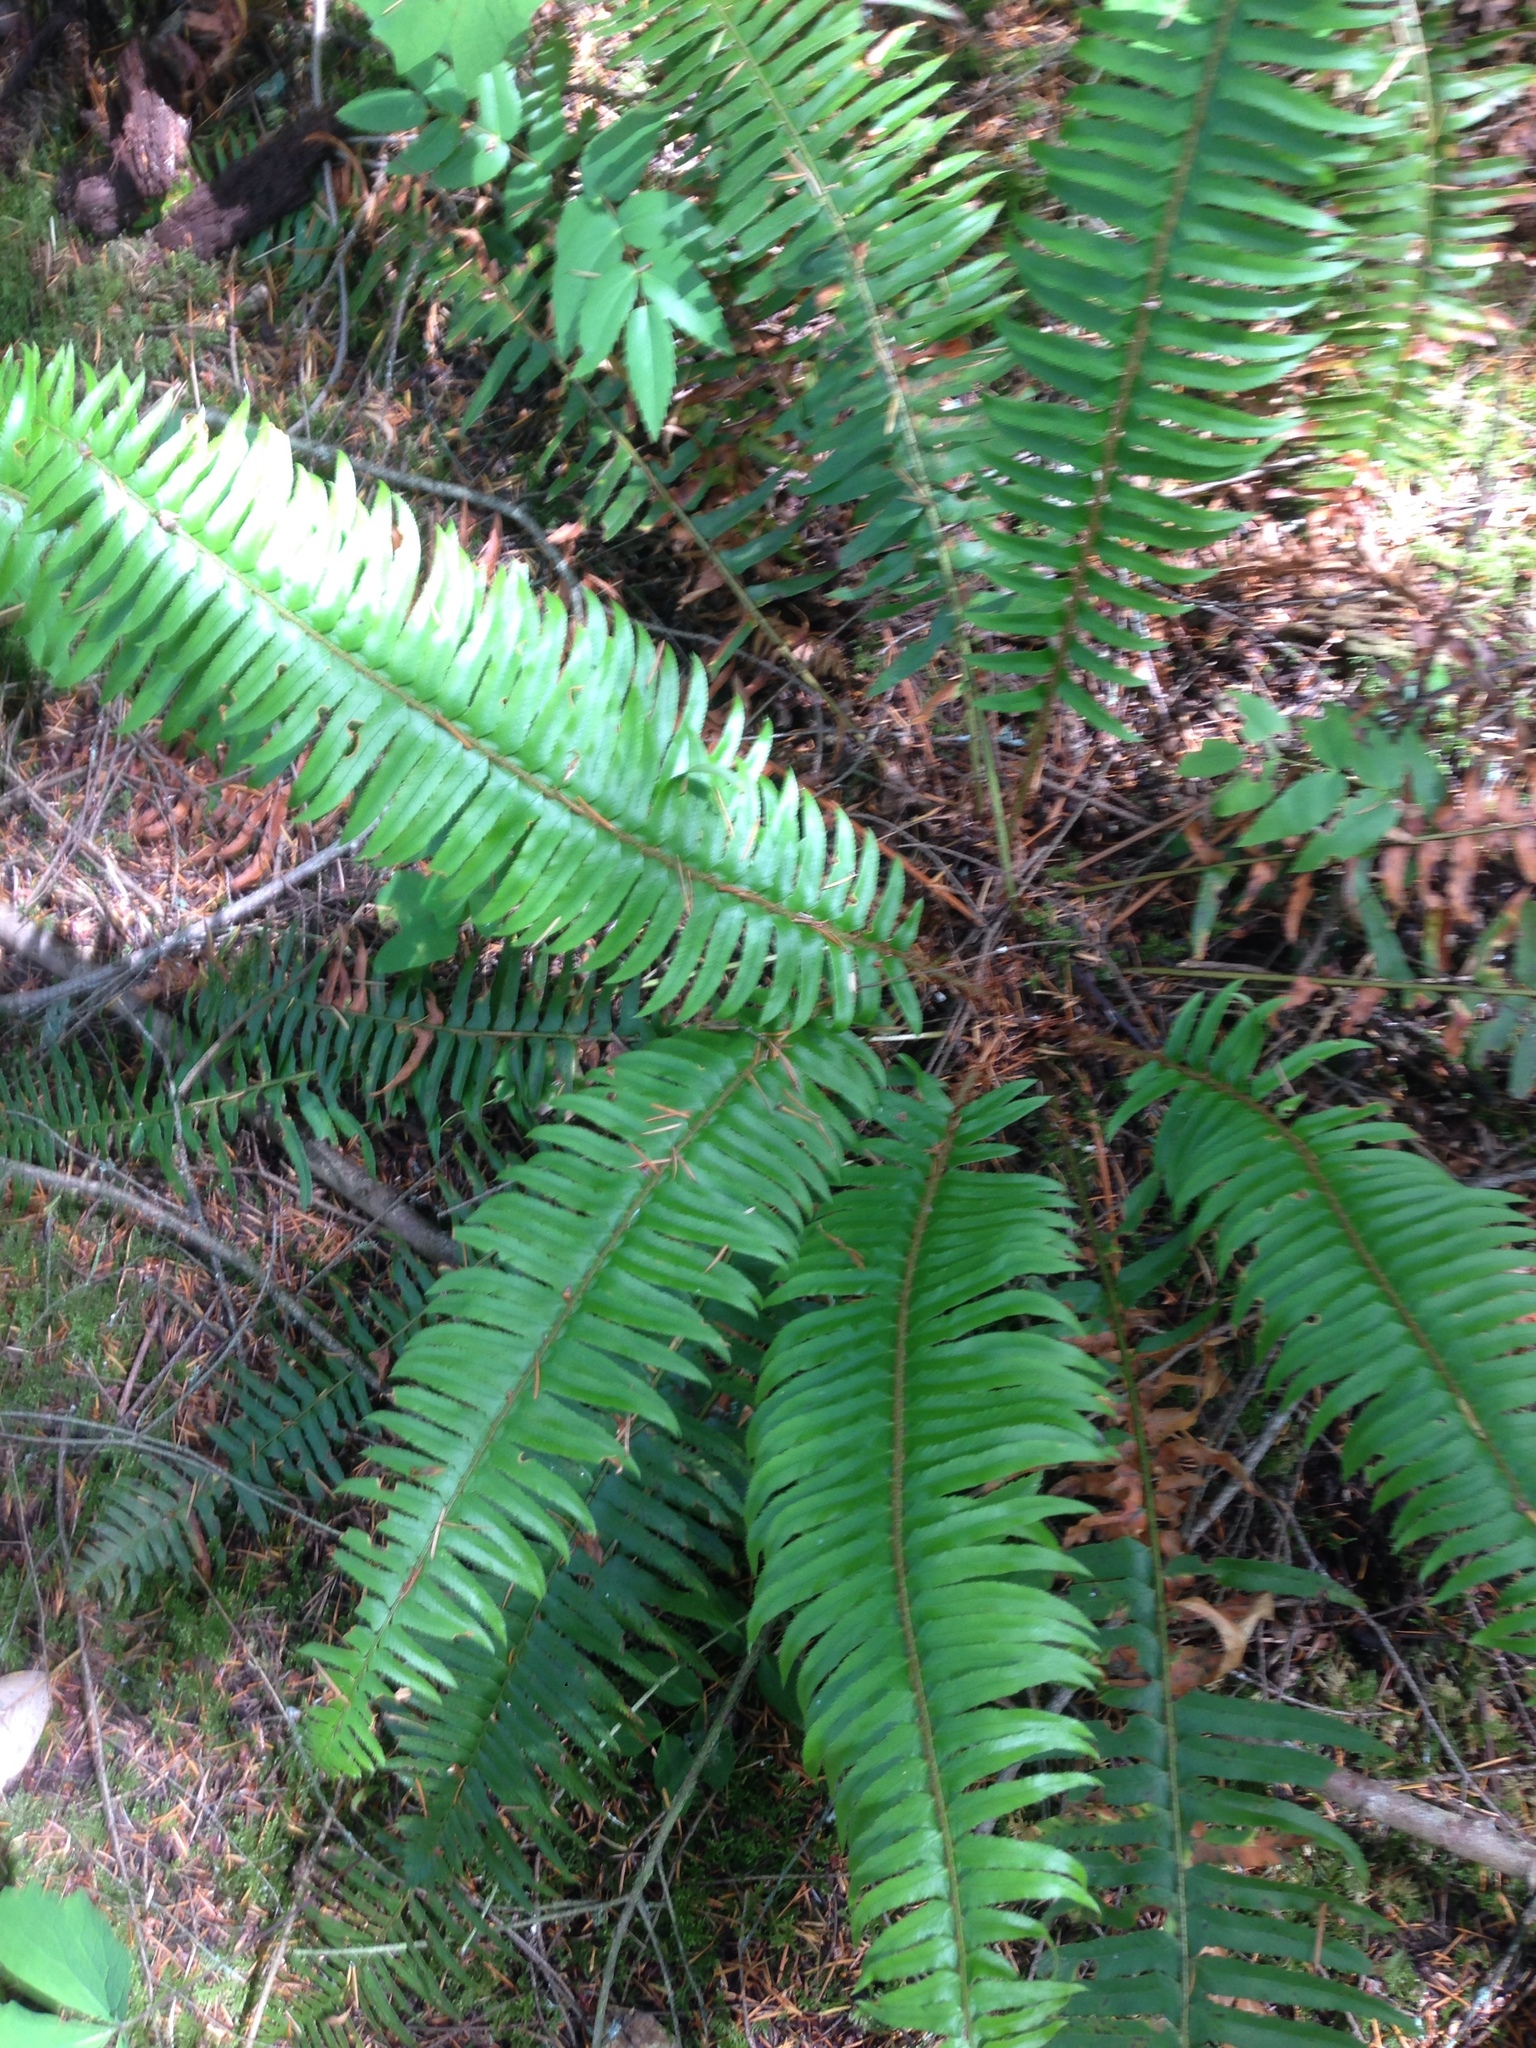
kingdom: Plantae
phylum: Tracheophyta
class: Polypodiopsida
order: Polypodiales
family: Dryopteridaceae
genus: Polystichum
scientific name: Polystichum munitum
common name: Western sword-fern
